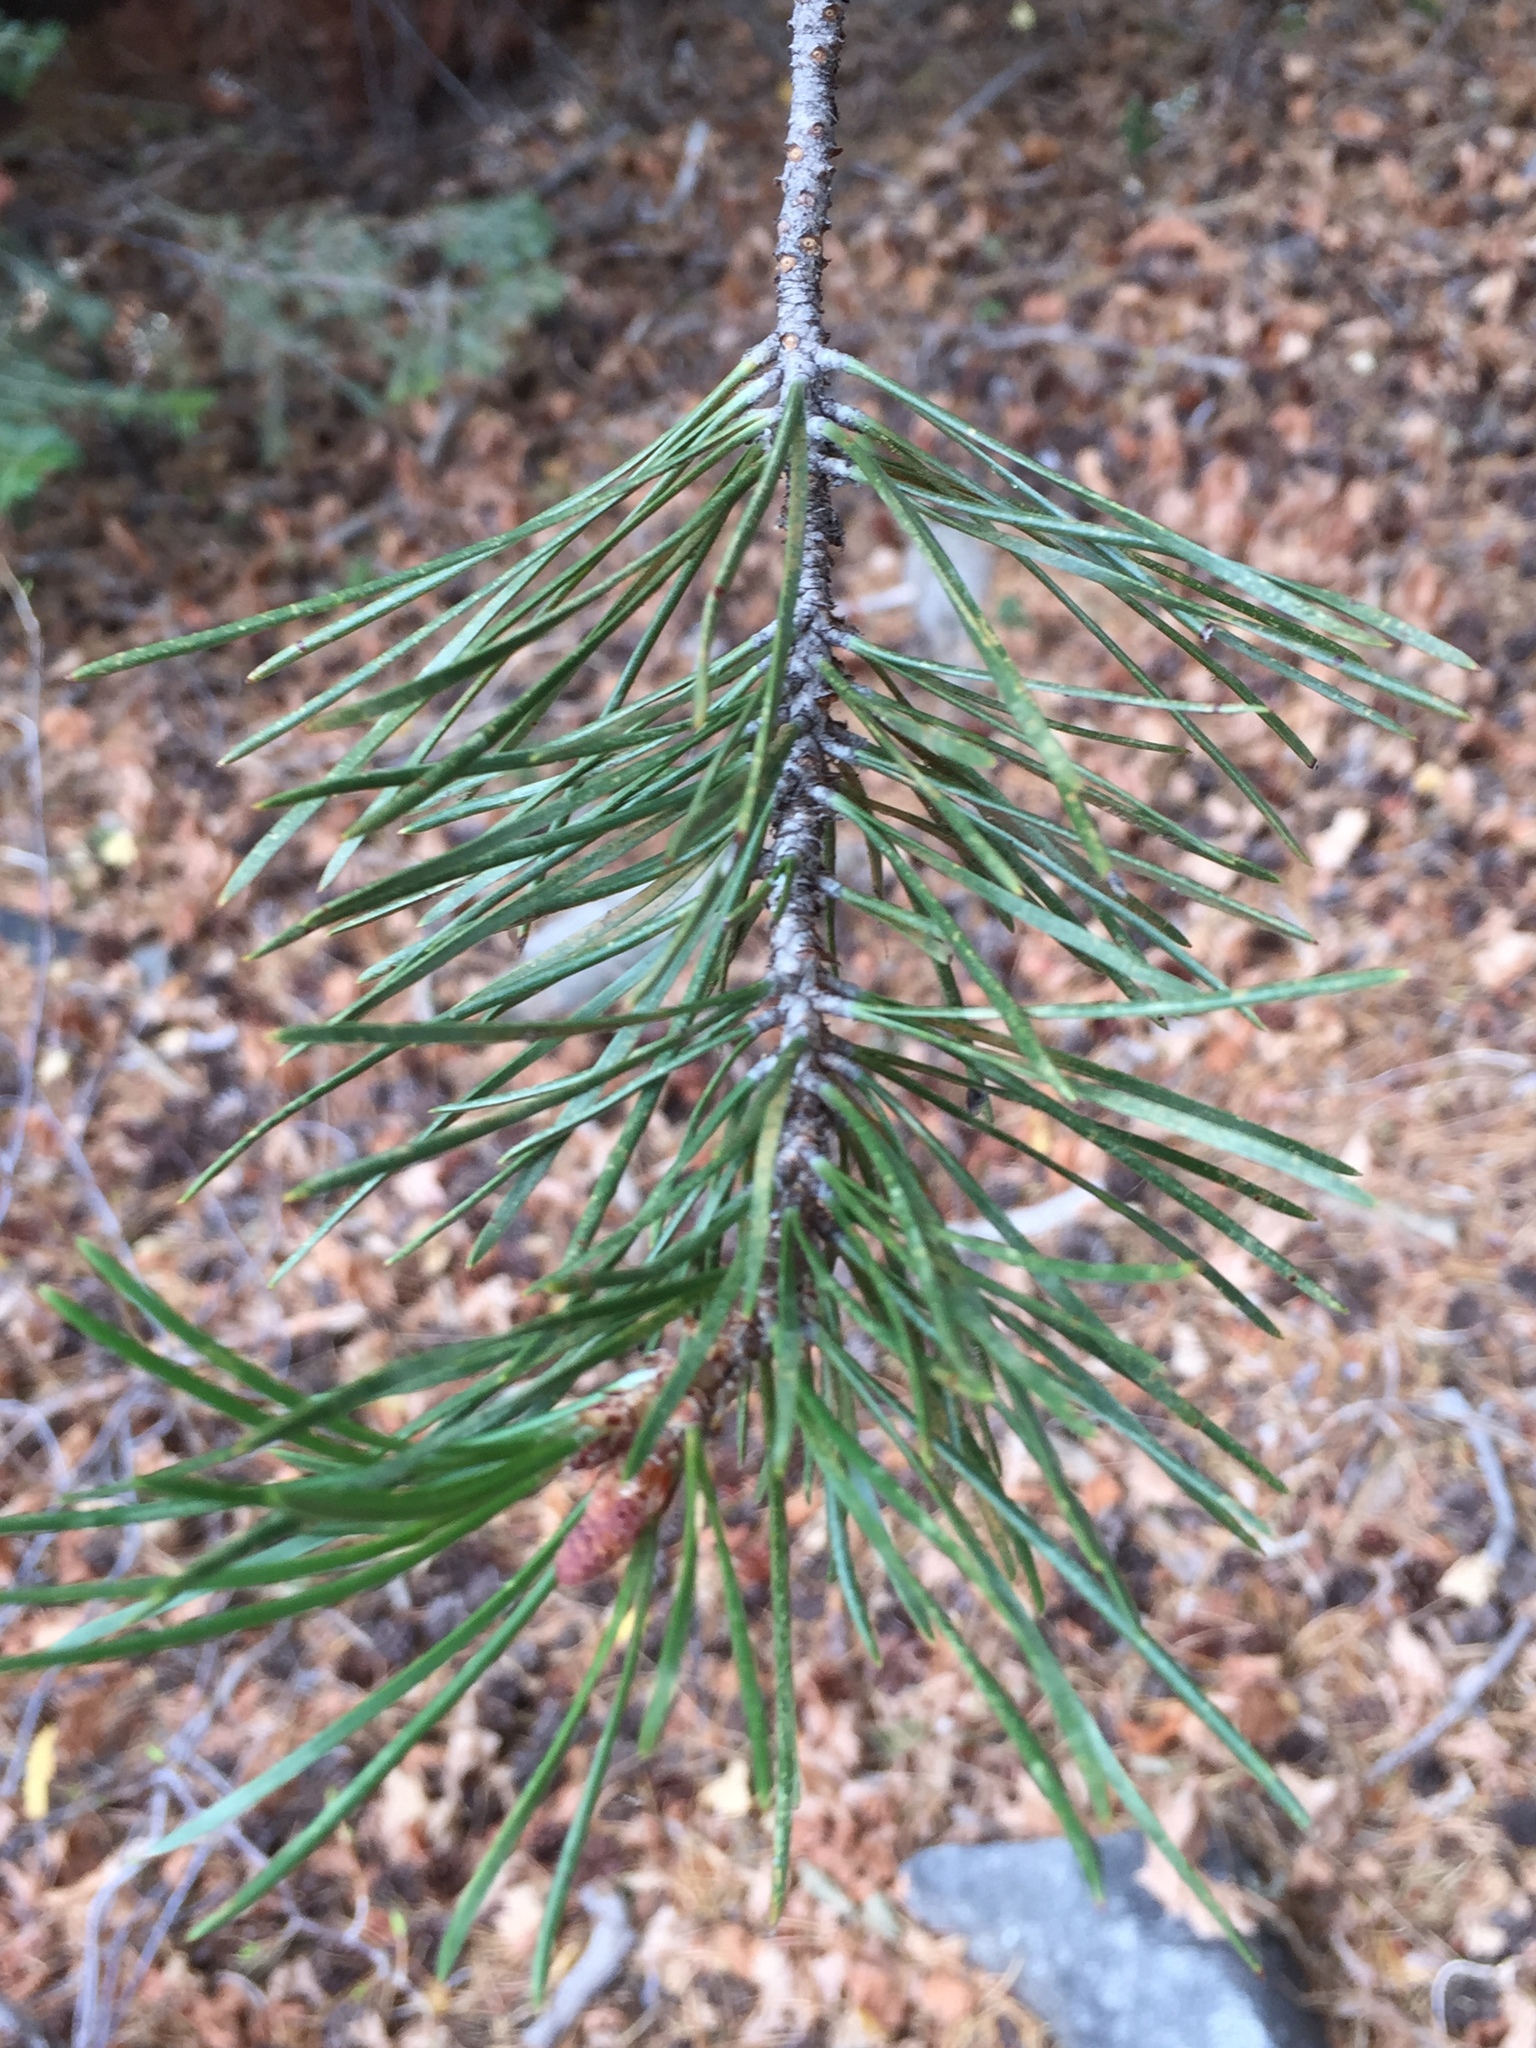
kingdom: Plantae
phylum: Tracheophyta
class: Pinopsida
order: Pinales
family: Pinaceae
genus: Pinus
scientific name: Pinus contorta
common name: Lodgepole pine
